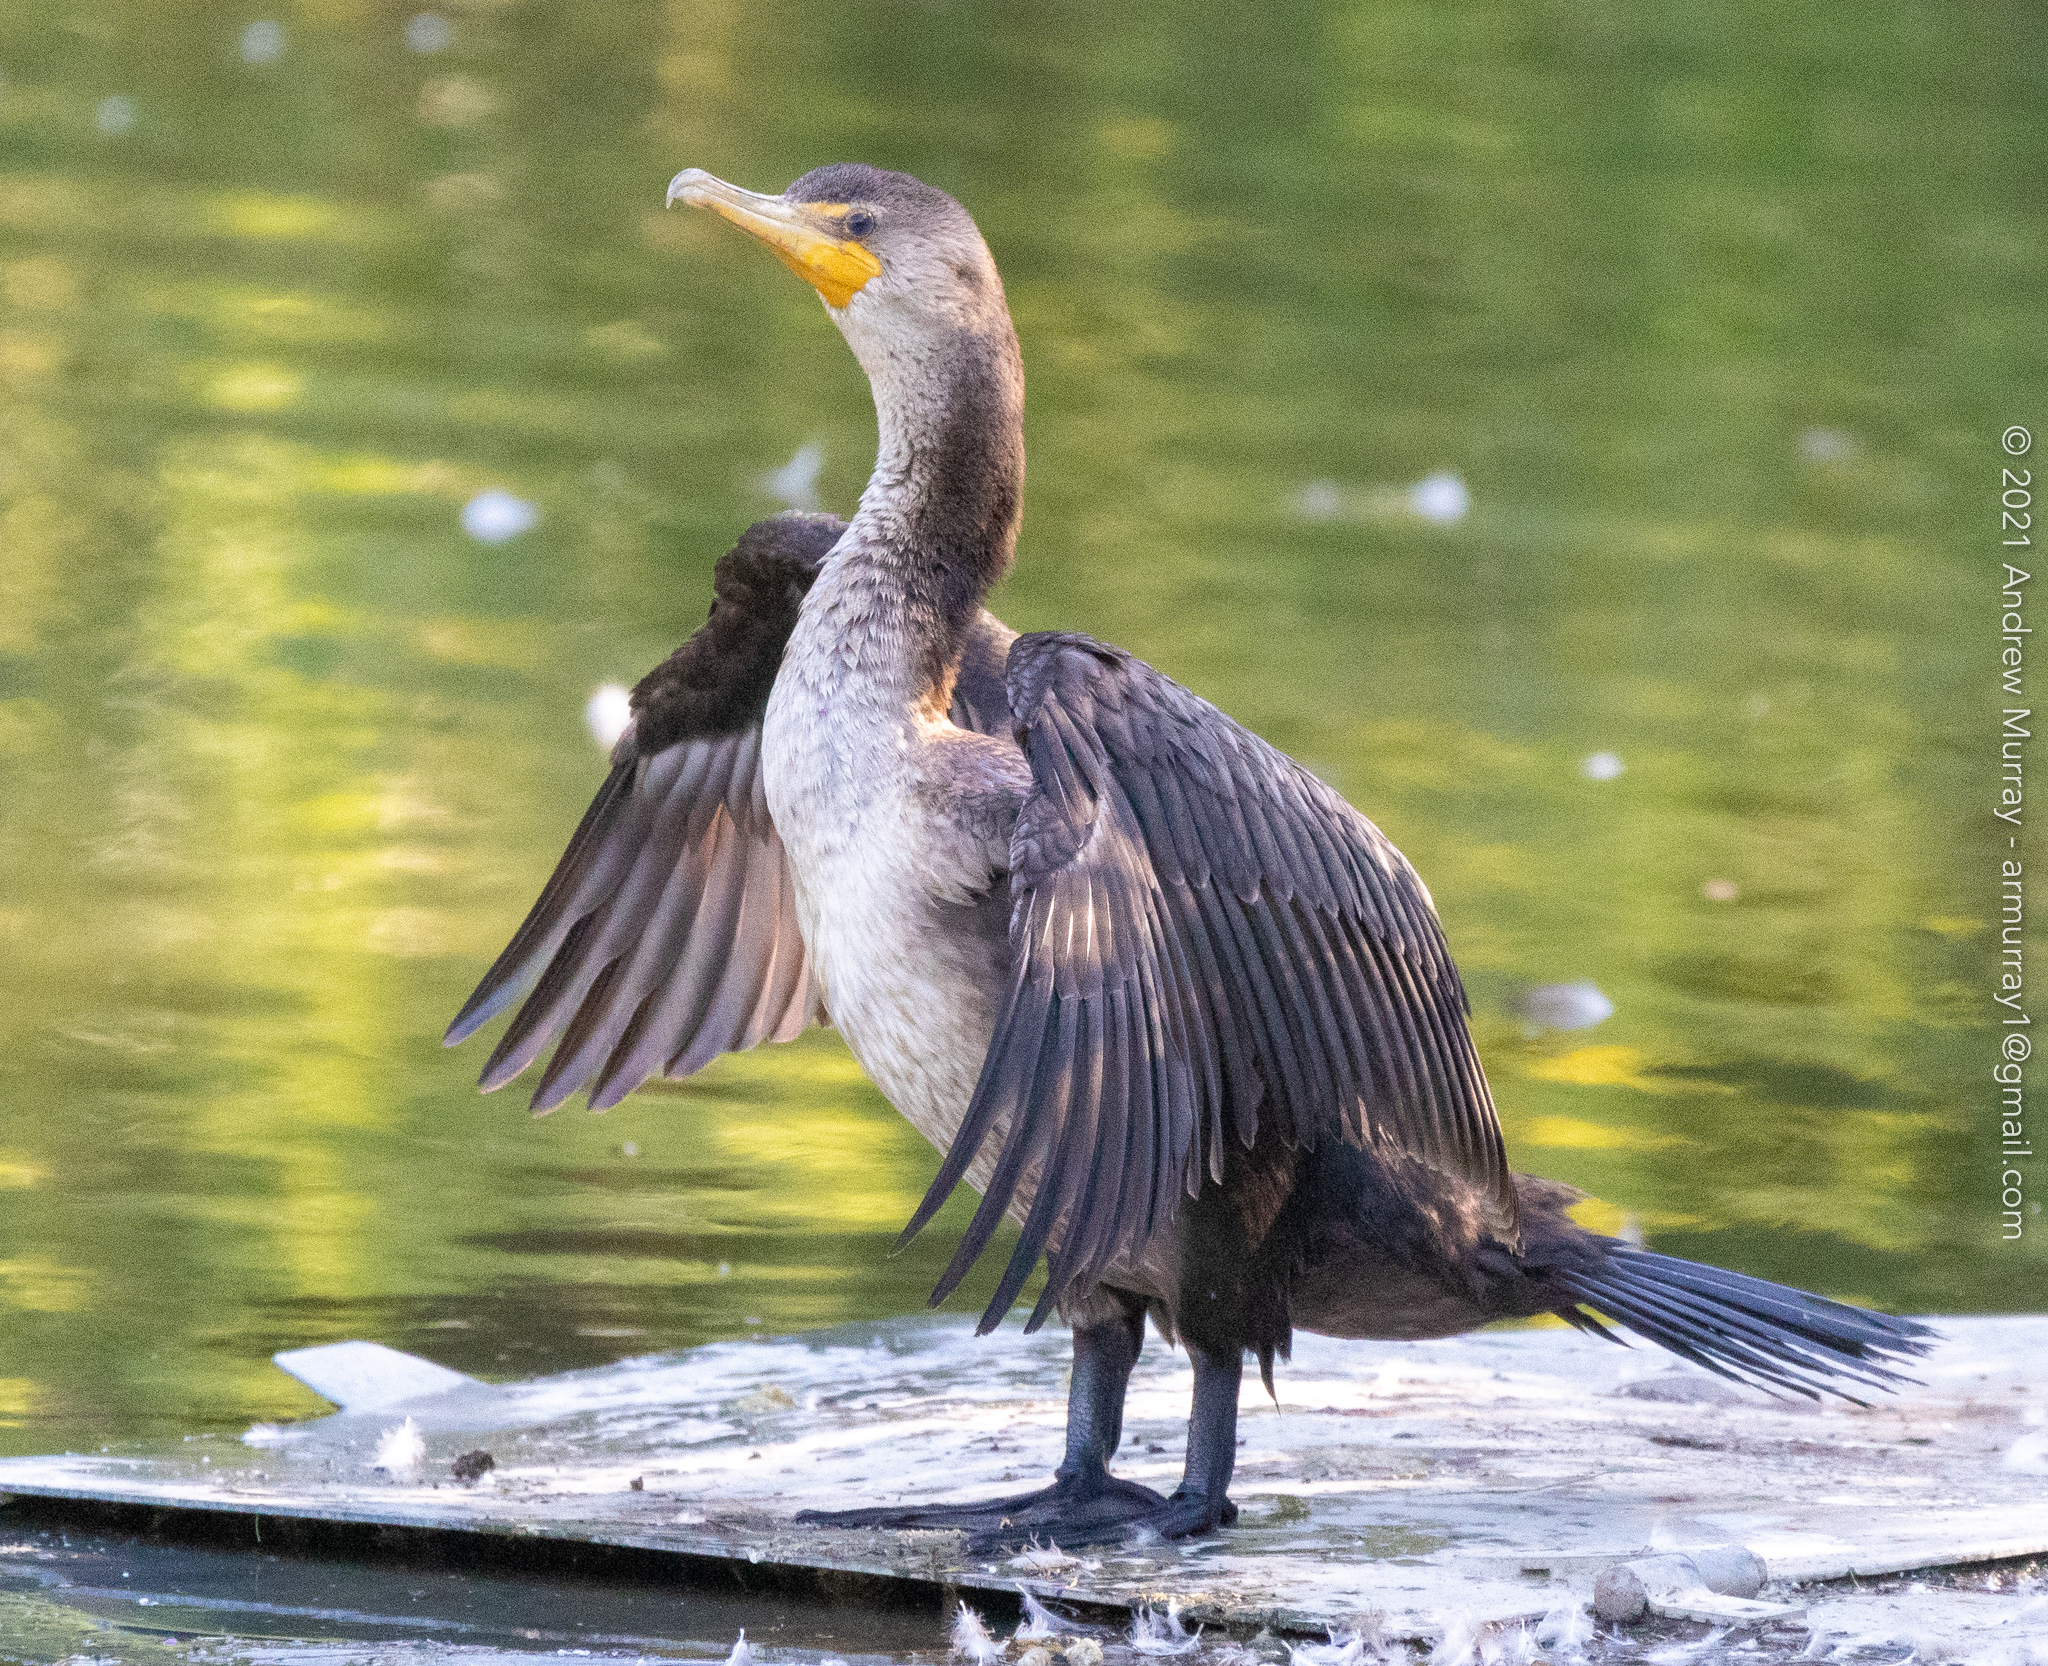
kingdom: Animalia
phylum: Chordata
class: Aves
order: Suliformes
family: Phalacrocoracidae
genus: Phalacrocorax
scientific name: Phalacrocorax auritus
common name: Double-crested cormorant
